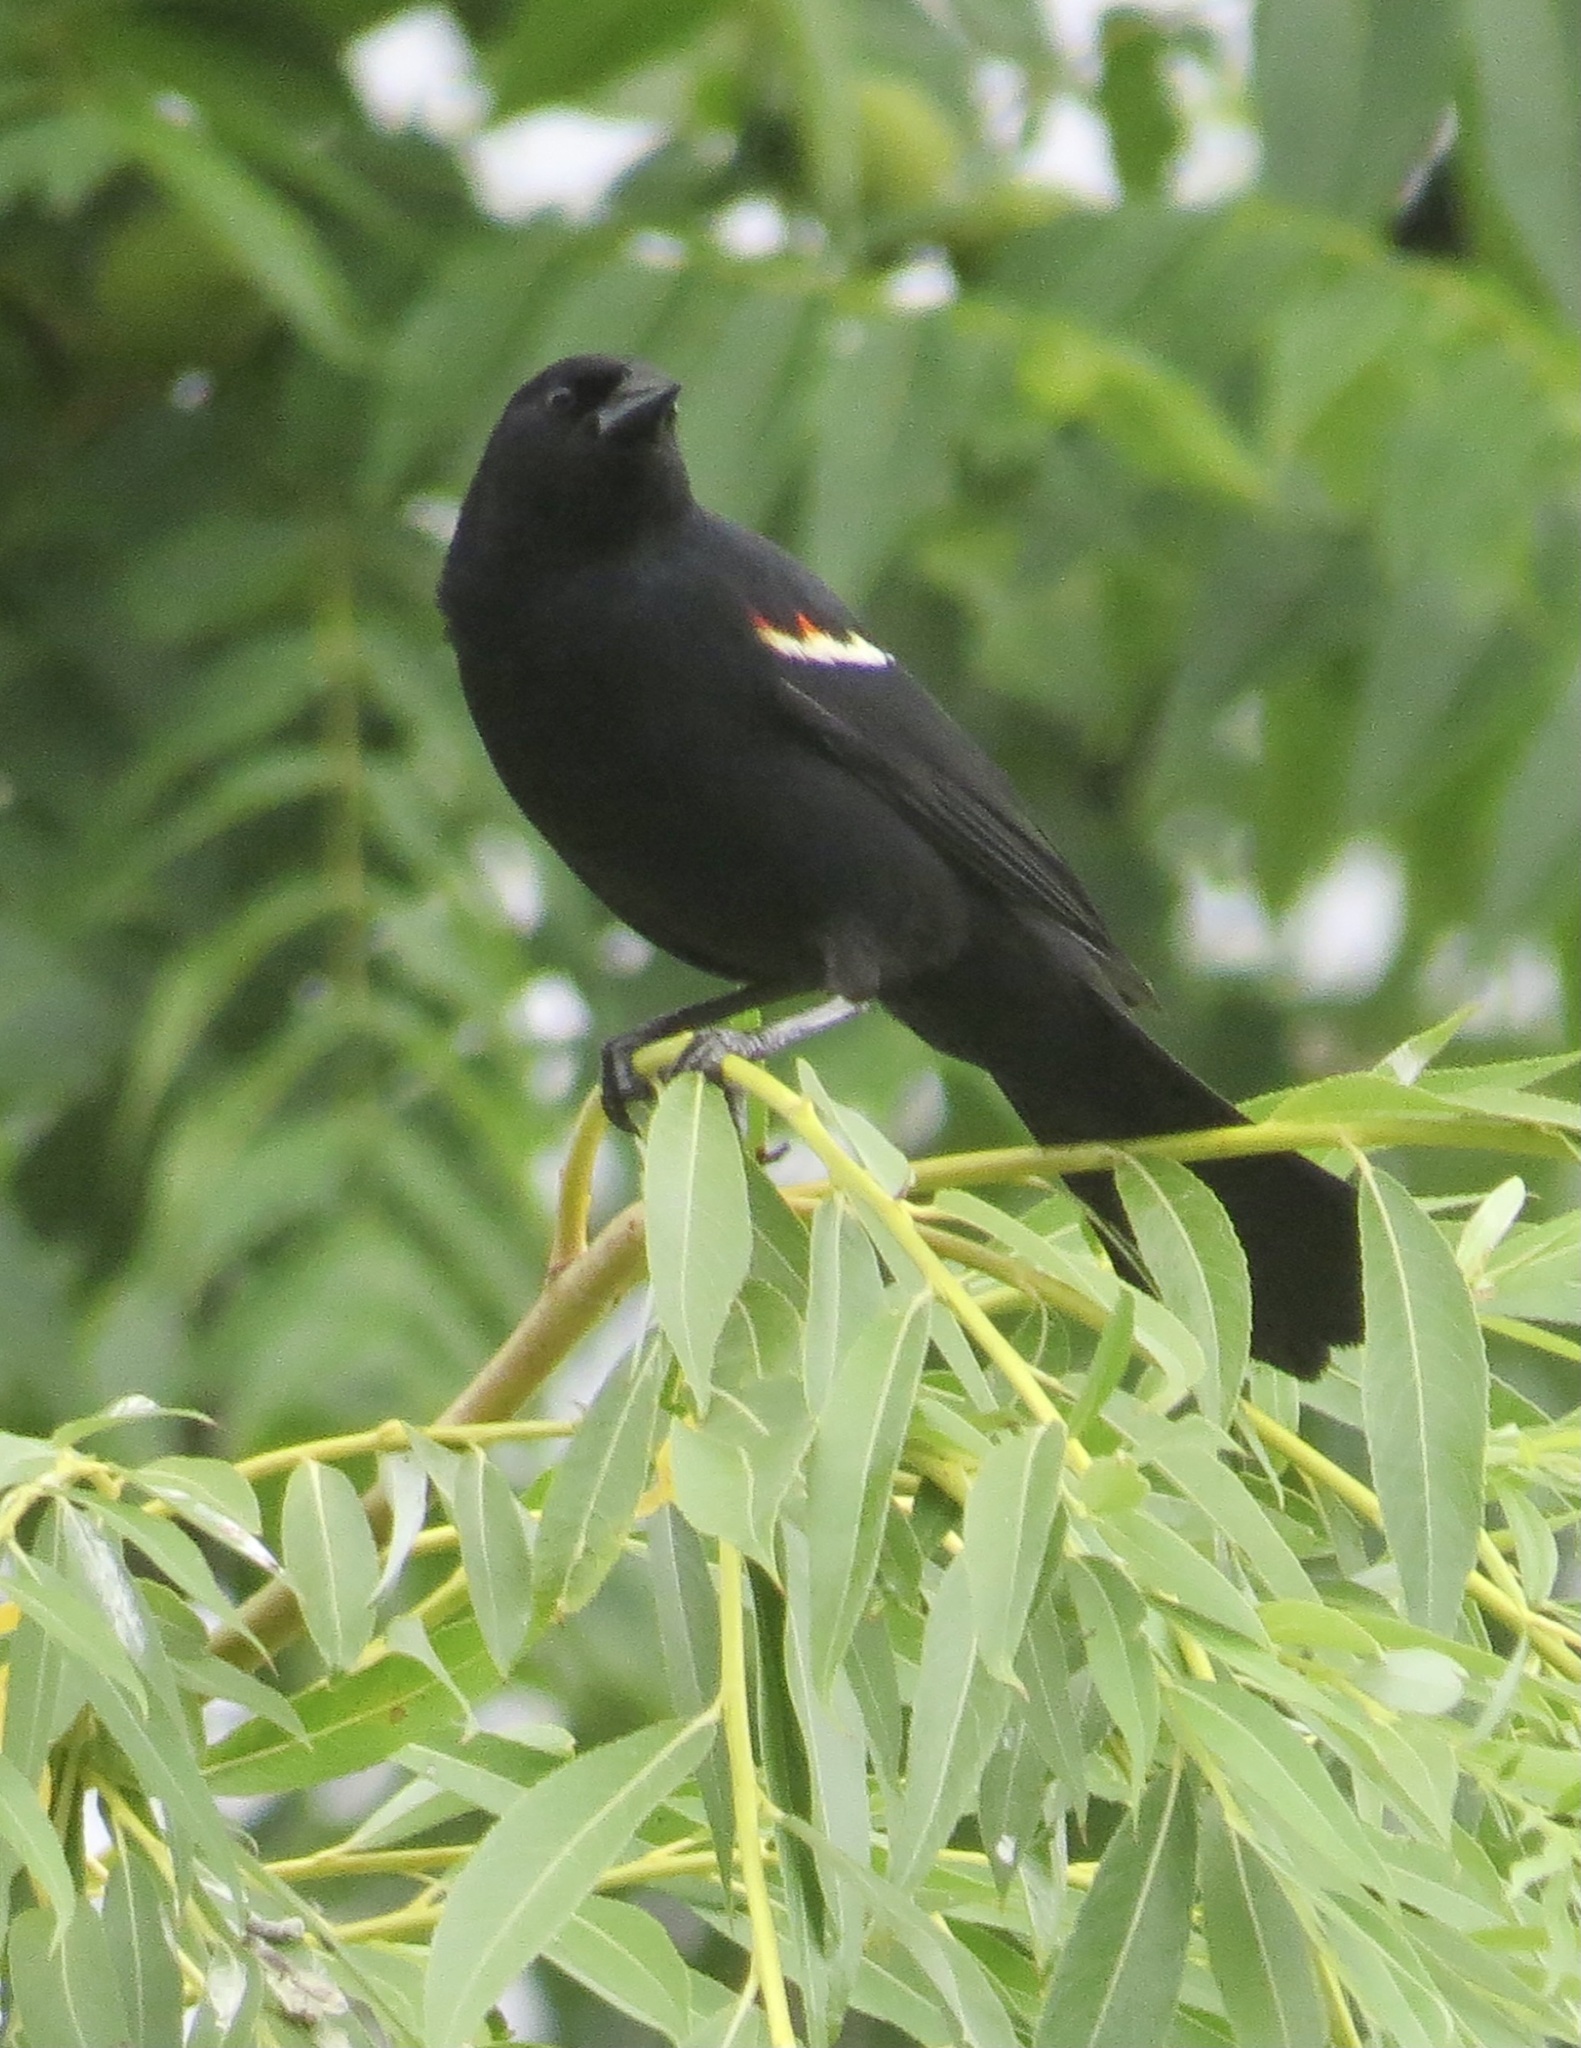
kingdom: Animalia
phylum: Chordata
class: Aves
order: Passeriformes
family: Icteridae
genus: Agelaius
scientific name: Agelaius phoeniceus
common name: Red-winged blackbird
